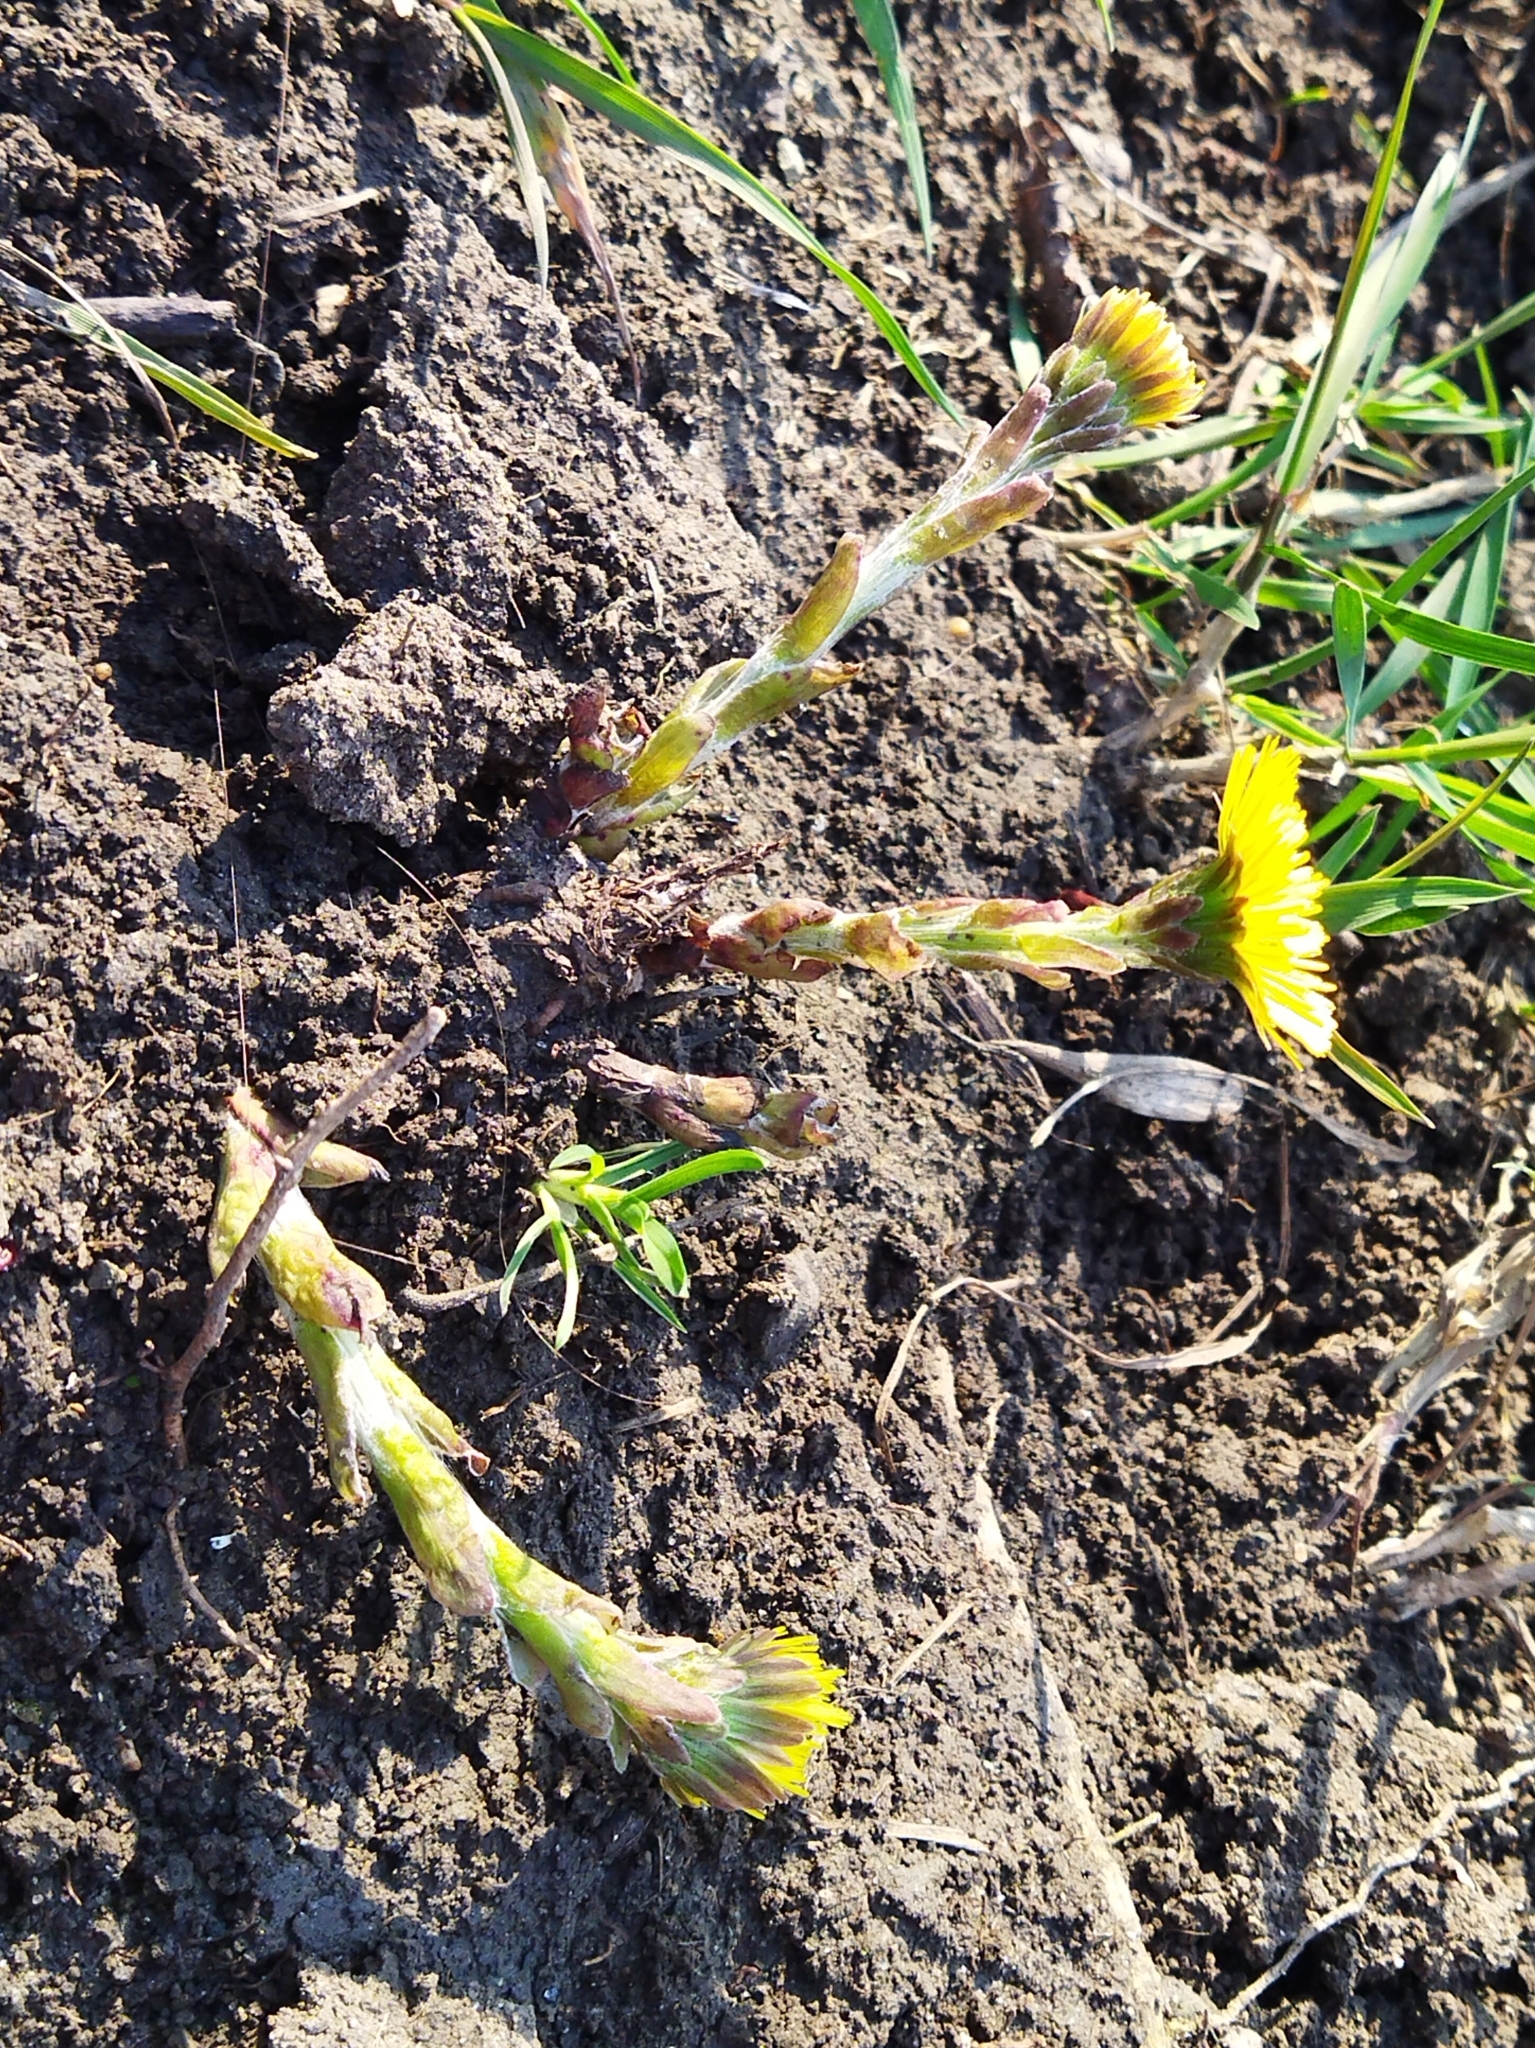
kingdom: Plantae
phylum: Tracheophyta
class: Magnoliopsida
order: Asterales
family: Asteraceae
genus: Tussilago
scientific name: Tussilago farfara
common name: Coltsfoot
